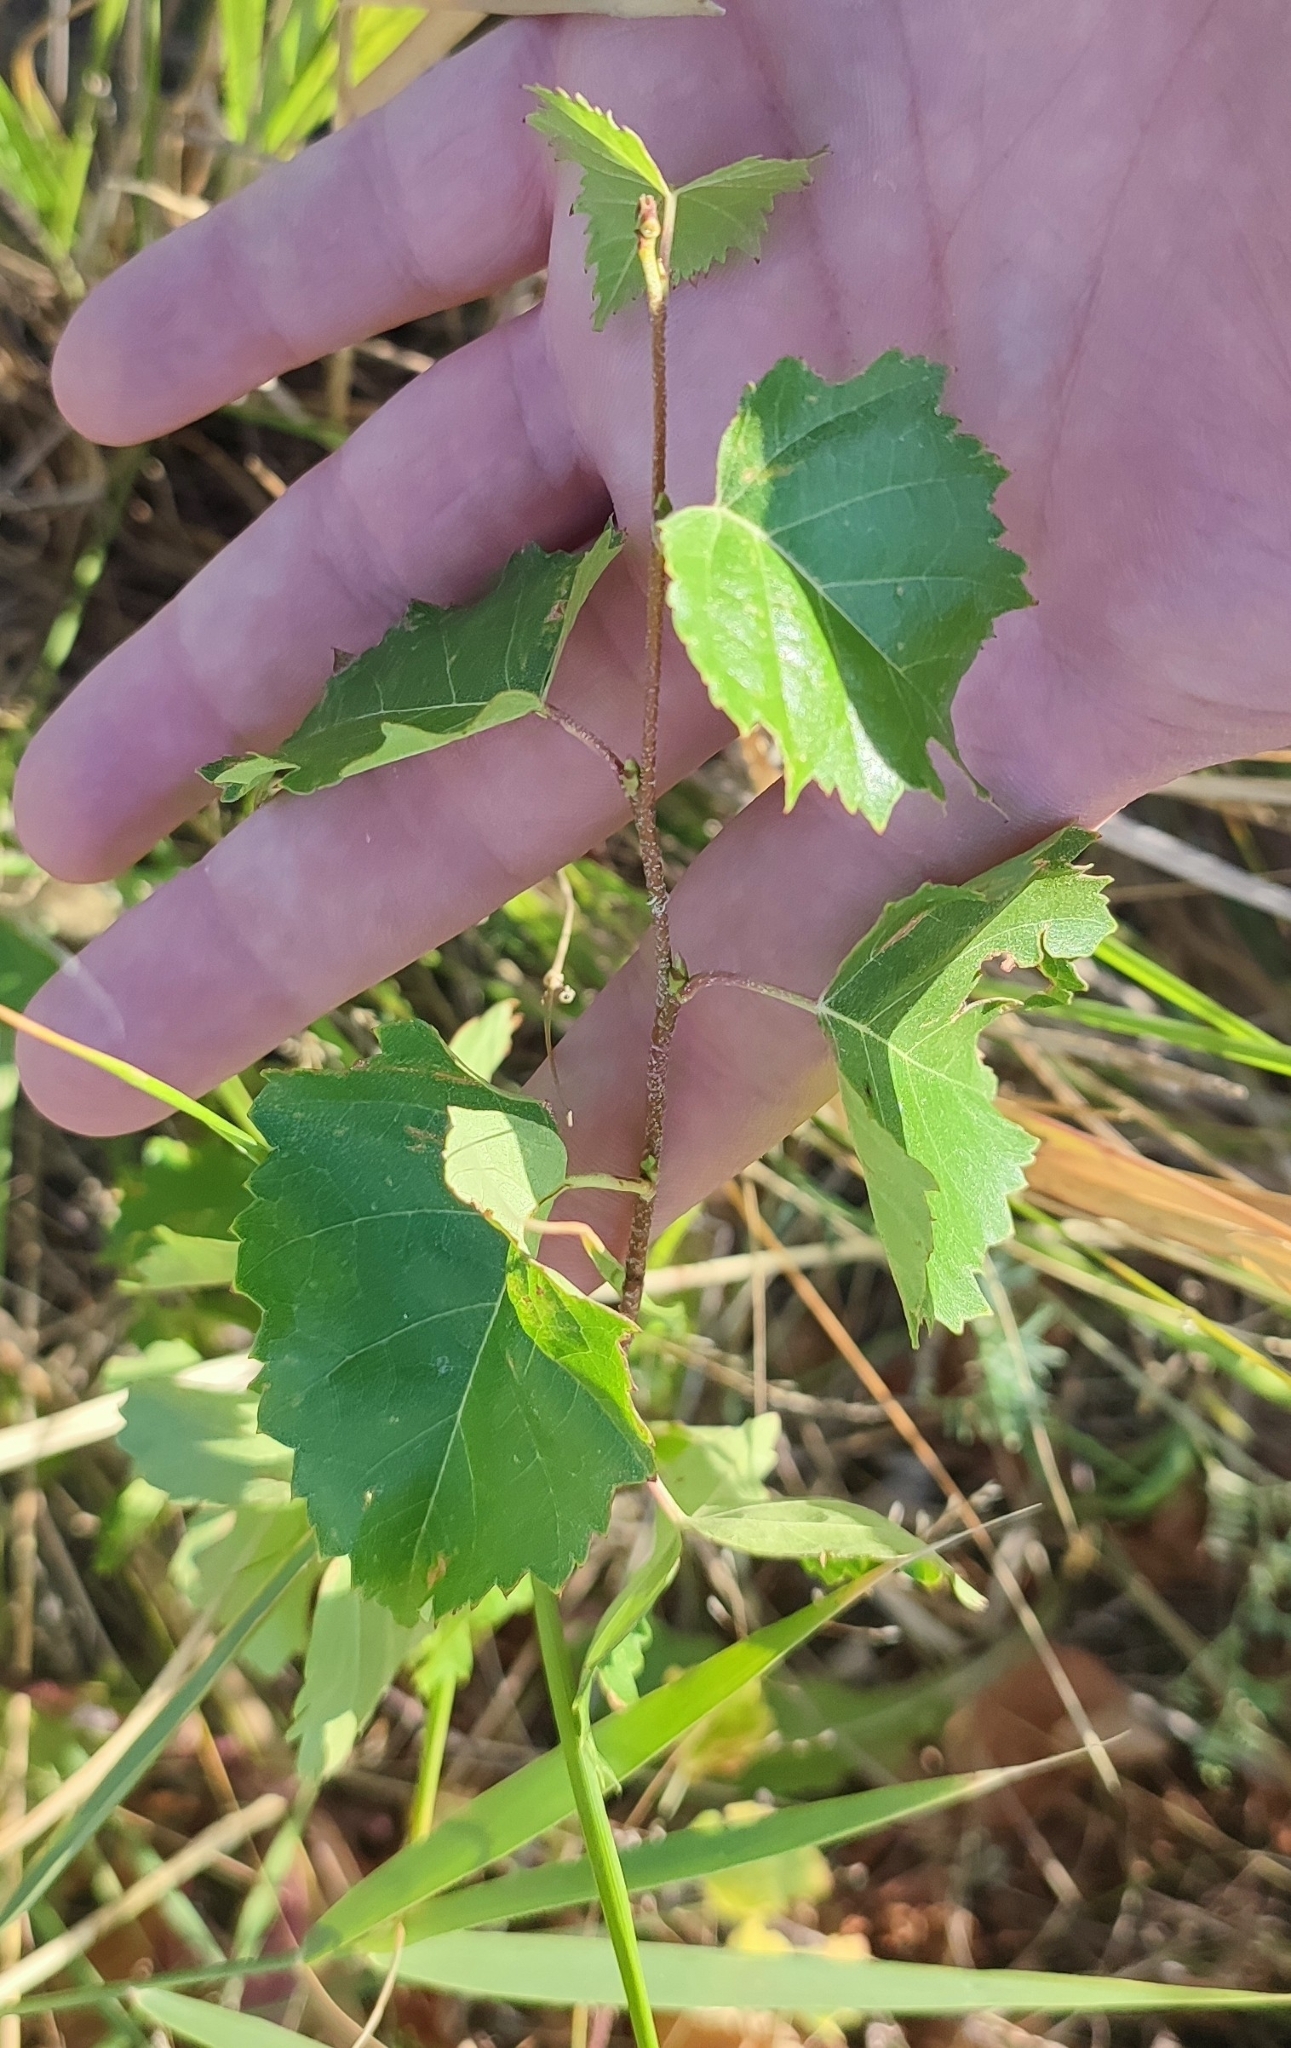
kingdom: Plantae
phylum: Tracheophyta
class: Magnoliopsida
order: Fagales
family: Betulaceae
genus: Betula
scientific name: Betula pendula
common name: Silver birch
